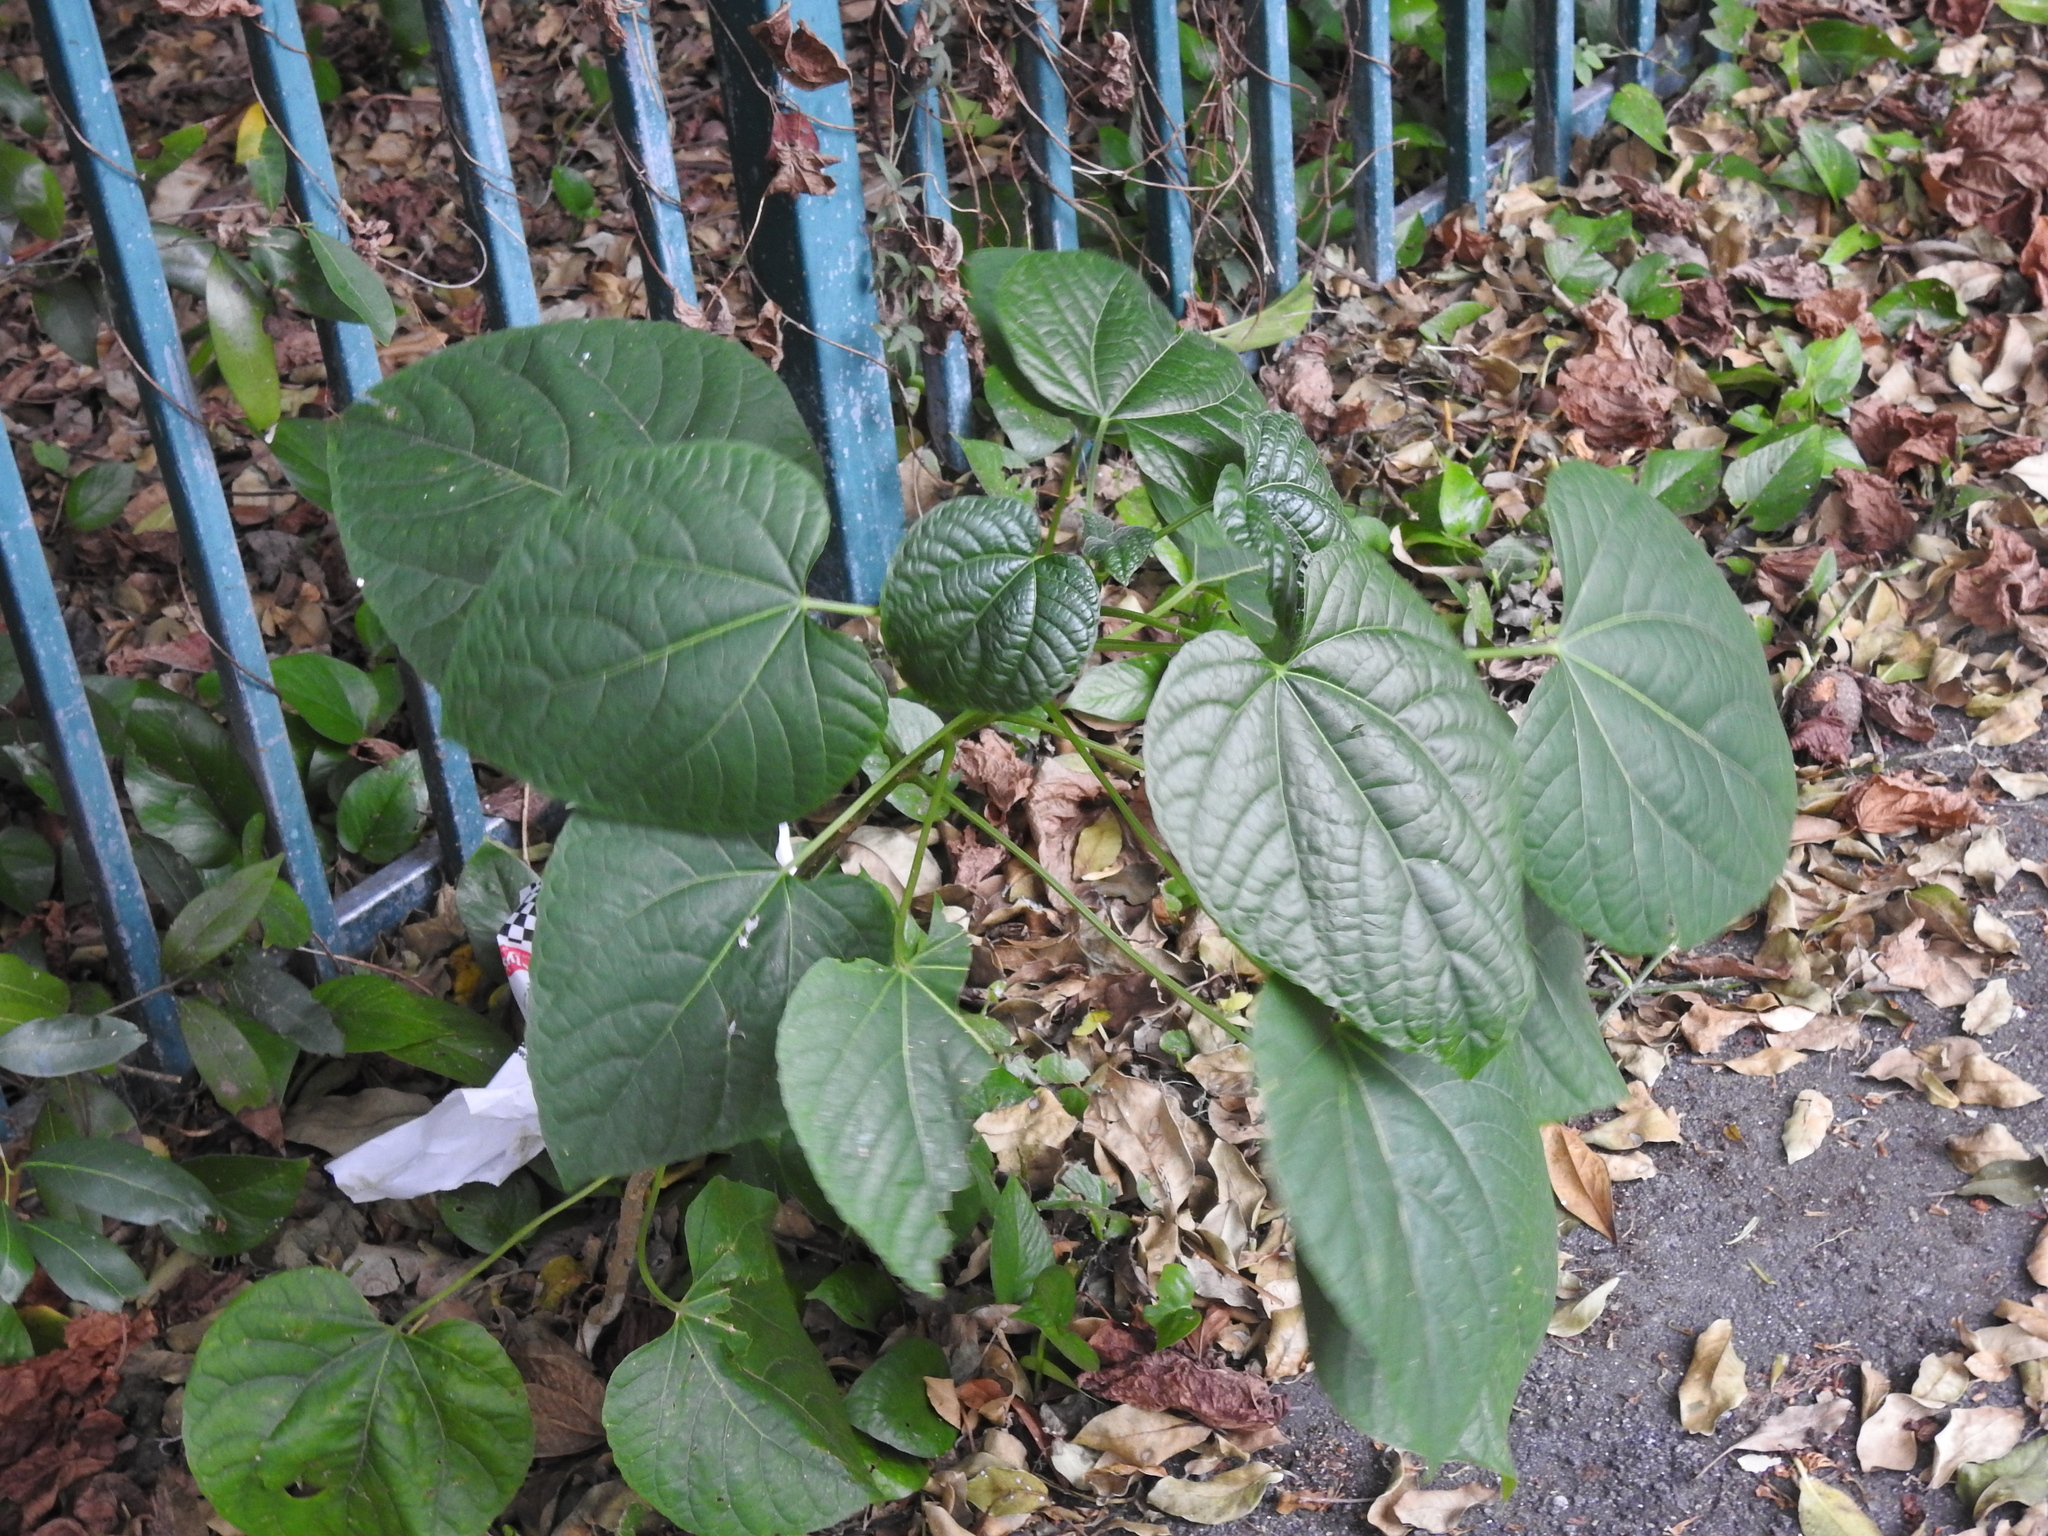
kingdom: Plantae
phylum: Tracheophyta
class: Liliopsida
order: Dioscoreales
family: Dioscoreaceae
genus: Dioscorea
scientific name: Dioscorea bulbifera
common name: Air yam
